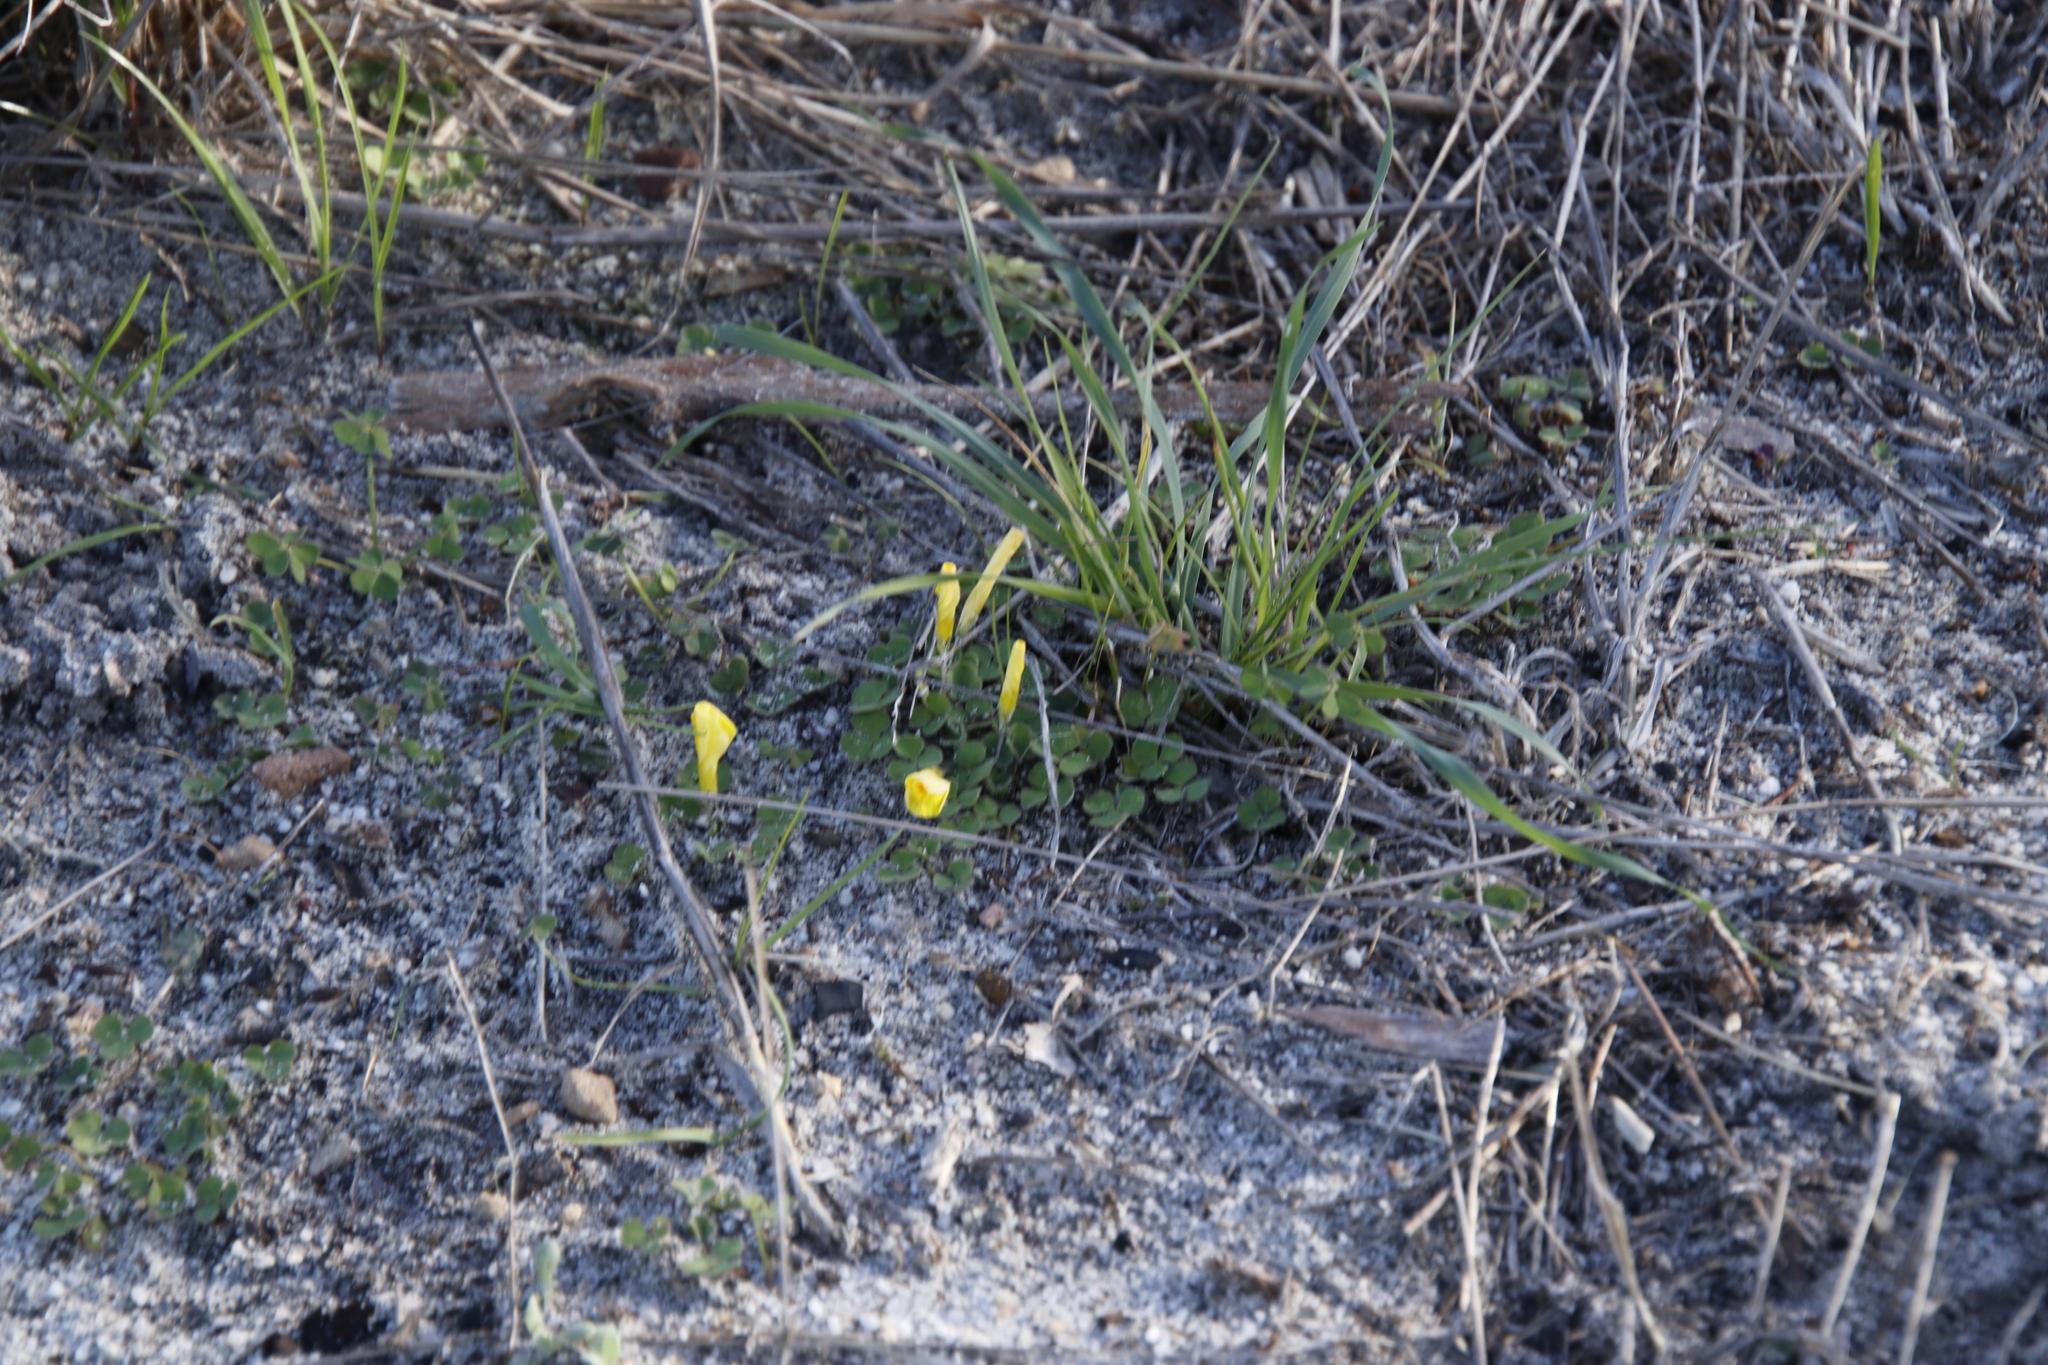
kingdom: Plantae
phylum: Tracheophyta
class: Magnoliopsida
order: Oxalidales
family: Oxalidaceae
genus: Oxalis
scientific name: Oxalis luteola
